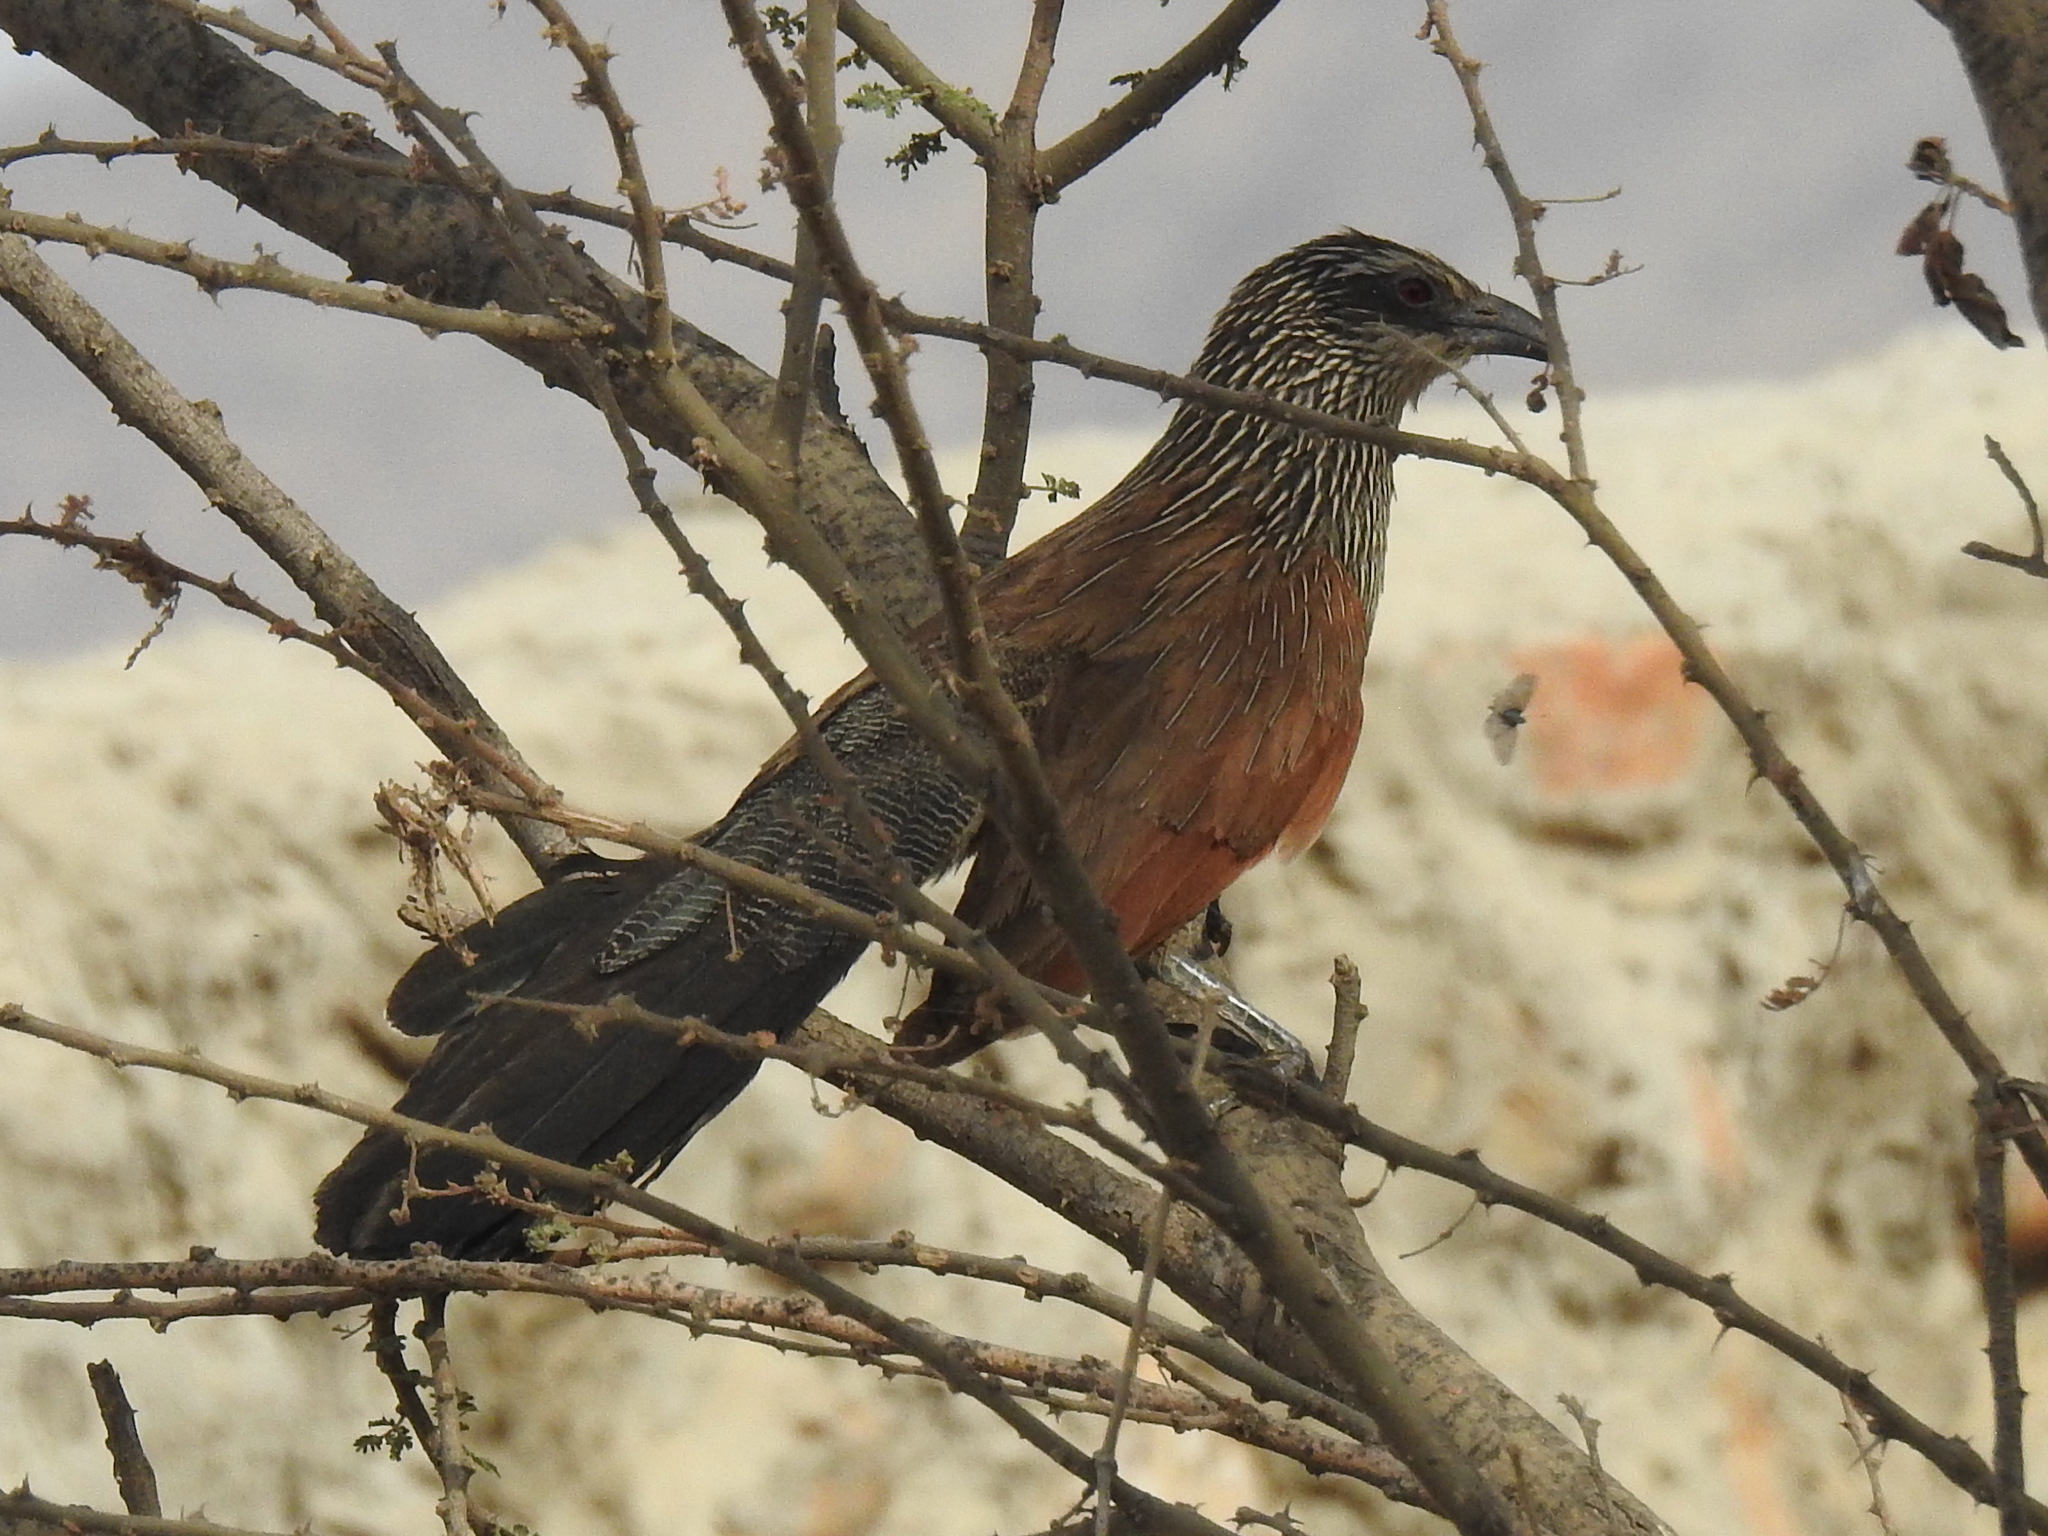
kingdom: Animalia
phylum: Chordata
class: Aves
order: Cuculiformes
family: Cuculidae
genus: Centropus
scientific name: Centropus superciliosus
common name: White-browed coucal
